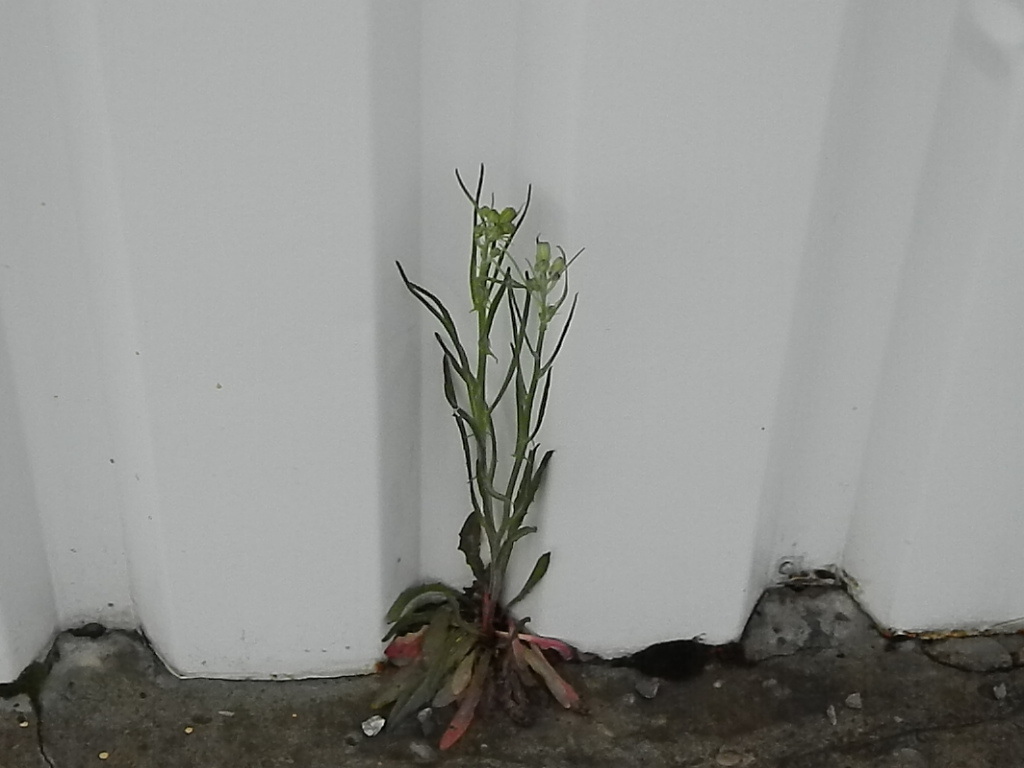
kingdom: Plantae
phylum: Tracheophyta
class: Magnoliopsida
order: Asterales
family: Asteraceae
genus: Crepis
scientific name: Crepis tectorum
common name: Narrow-leaved hawk's-beard
